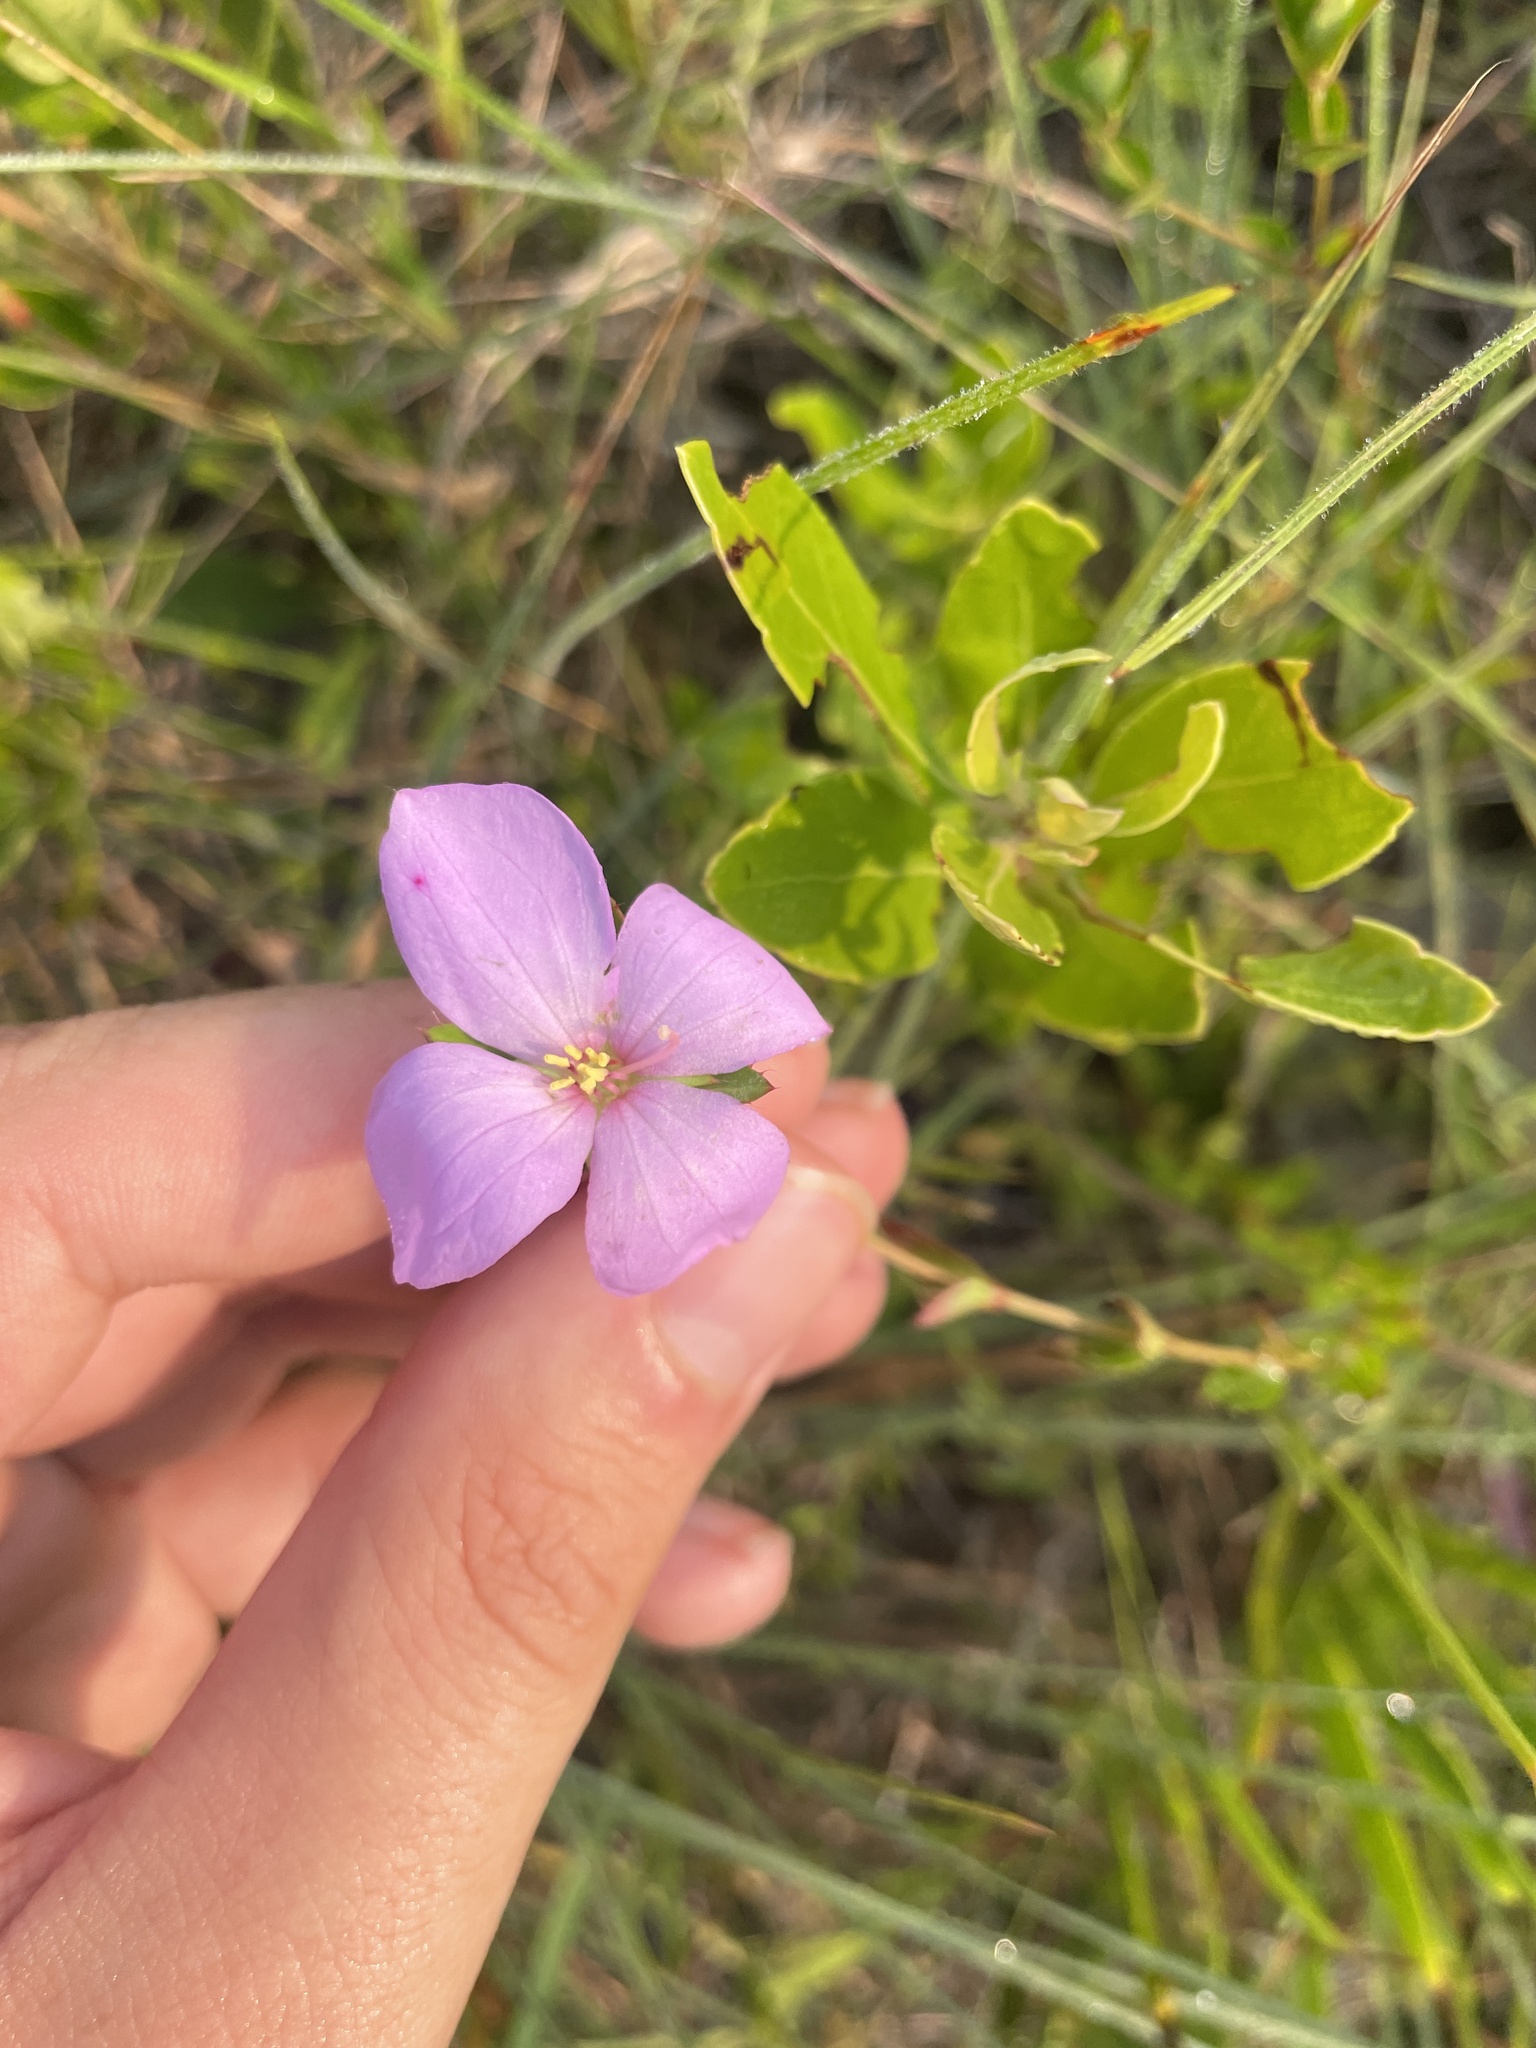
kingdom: Plantae
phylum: Tracheophyta
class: Magnoliopsida
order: Myrtales
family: Melastomataceae
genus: Rhexia
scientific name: Rhexia petiolata
